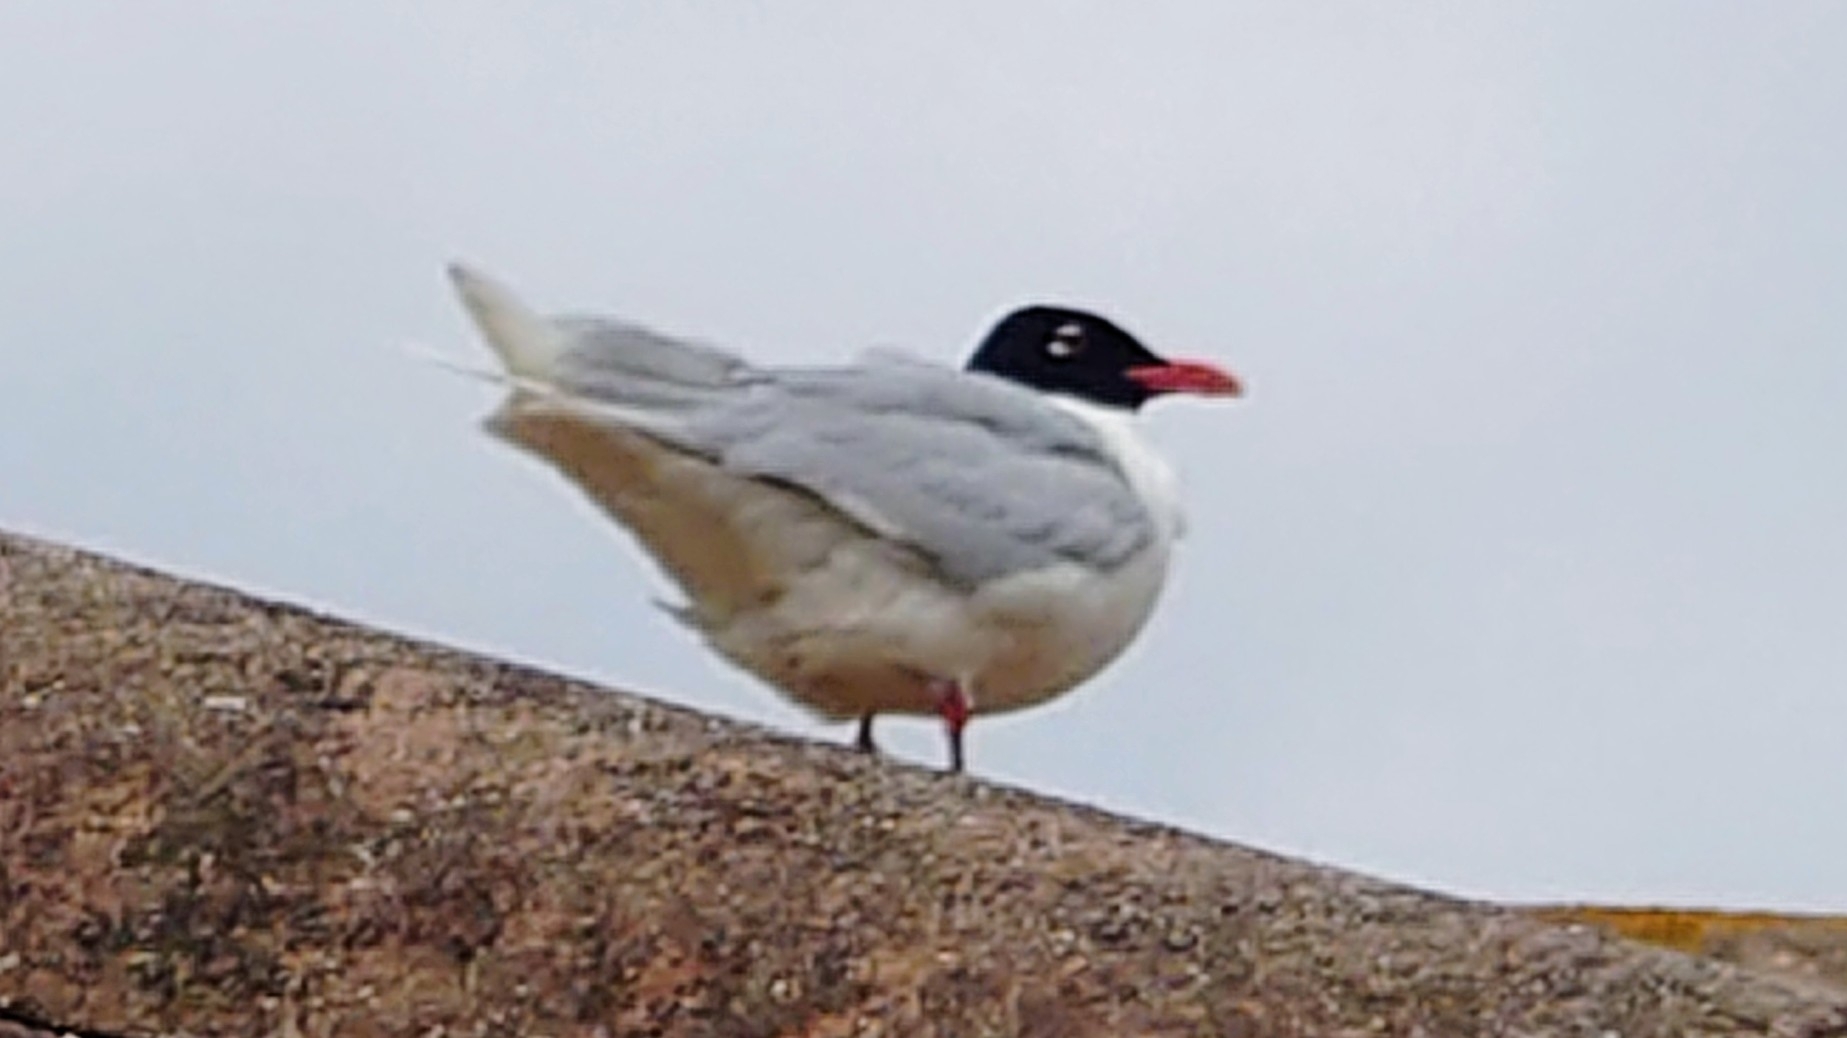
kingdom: Animalia
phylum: Chordata
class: Aves
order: Charadriiformes
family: Laridae
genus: Ichthyaetus
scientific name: Ichthyaetus melanocephalus
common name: Mediterranean gull
